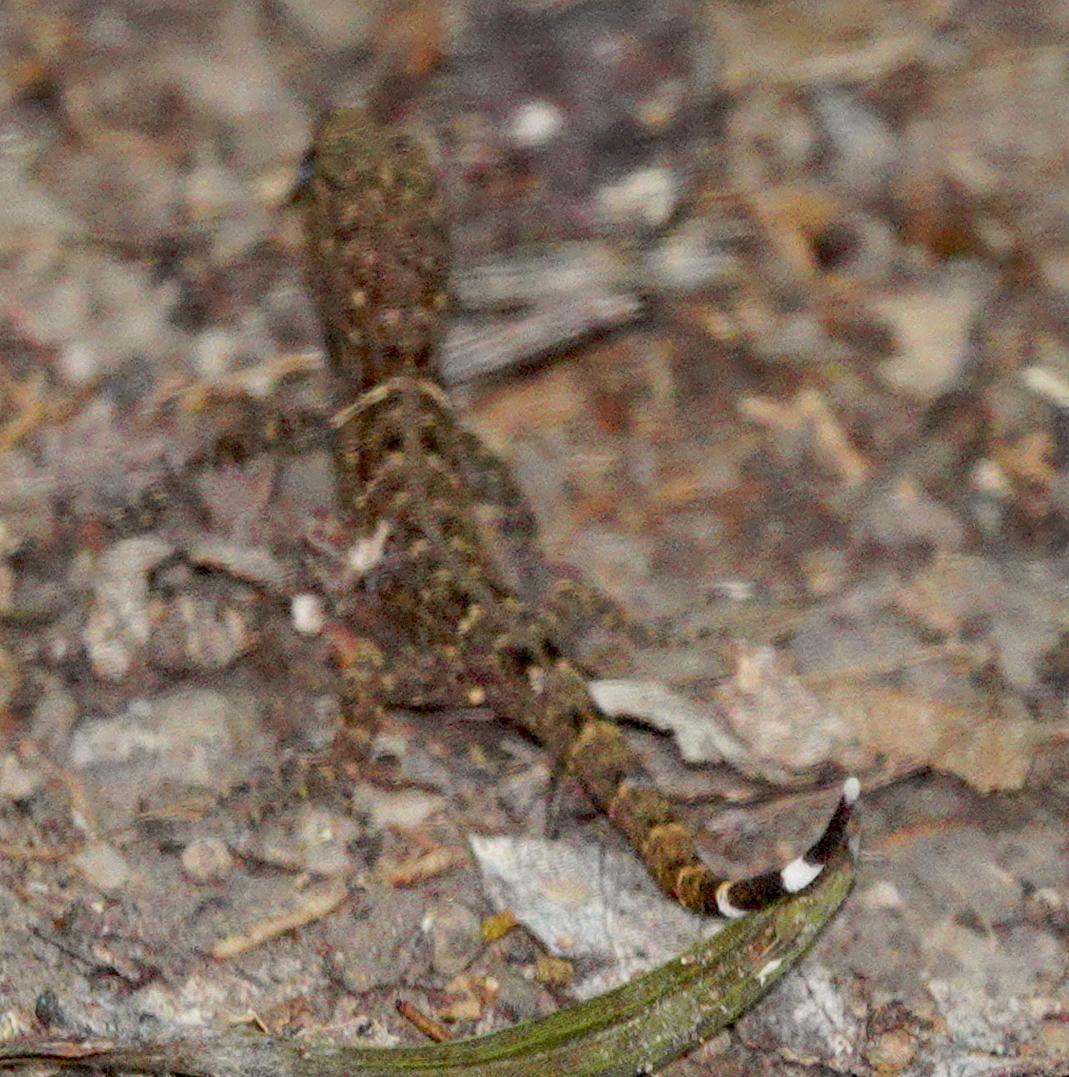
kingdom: Animalia
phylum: Chordata
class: Squamata
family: Sphaerodactylidae
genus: Gonatodes
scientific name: Gonatodes humeralis
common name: South american clawed gecko
